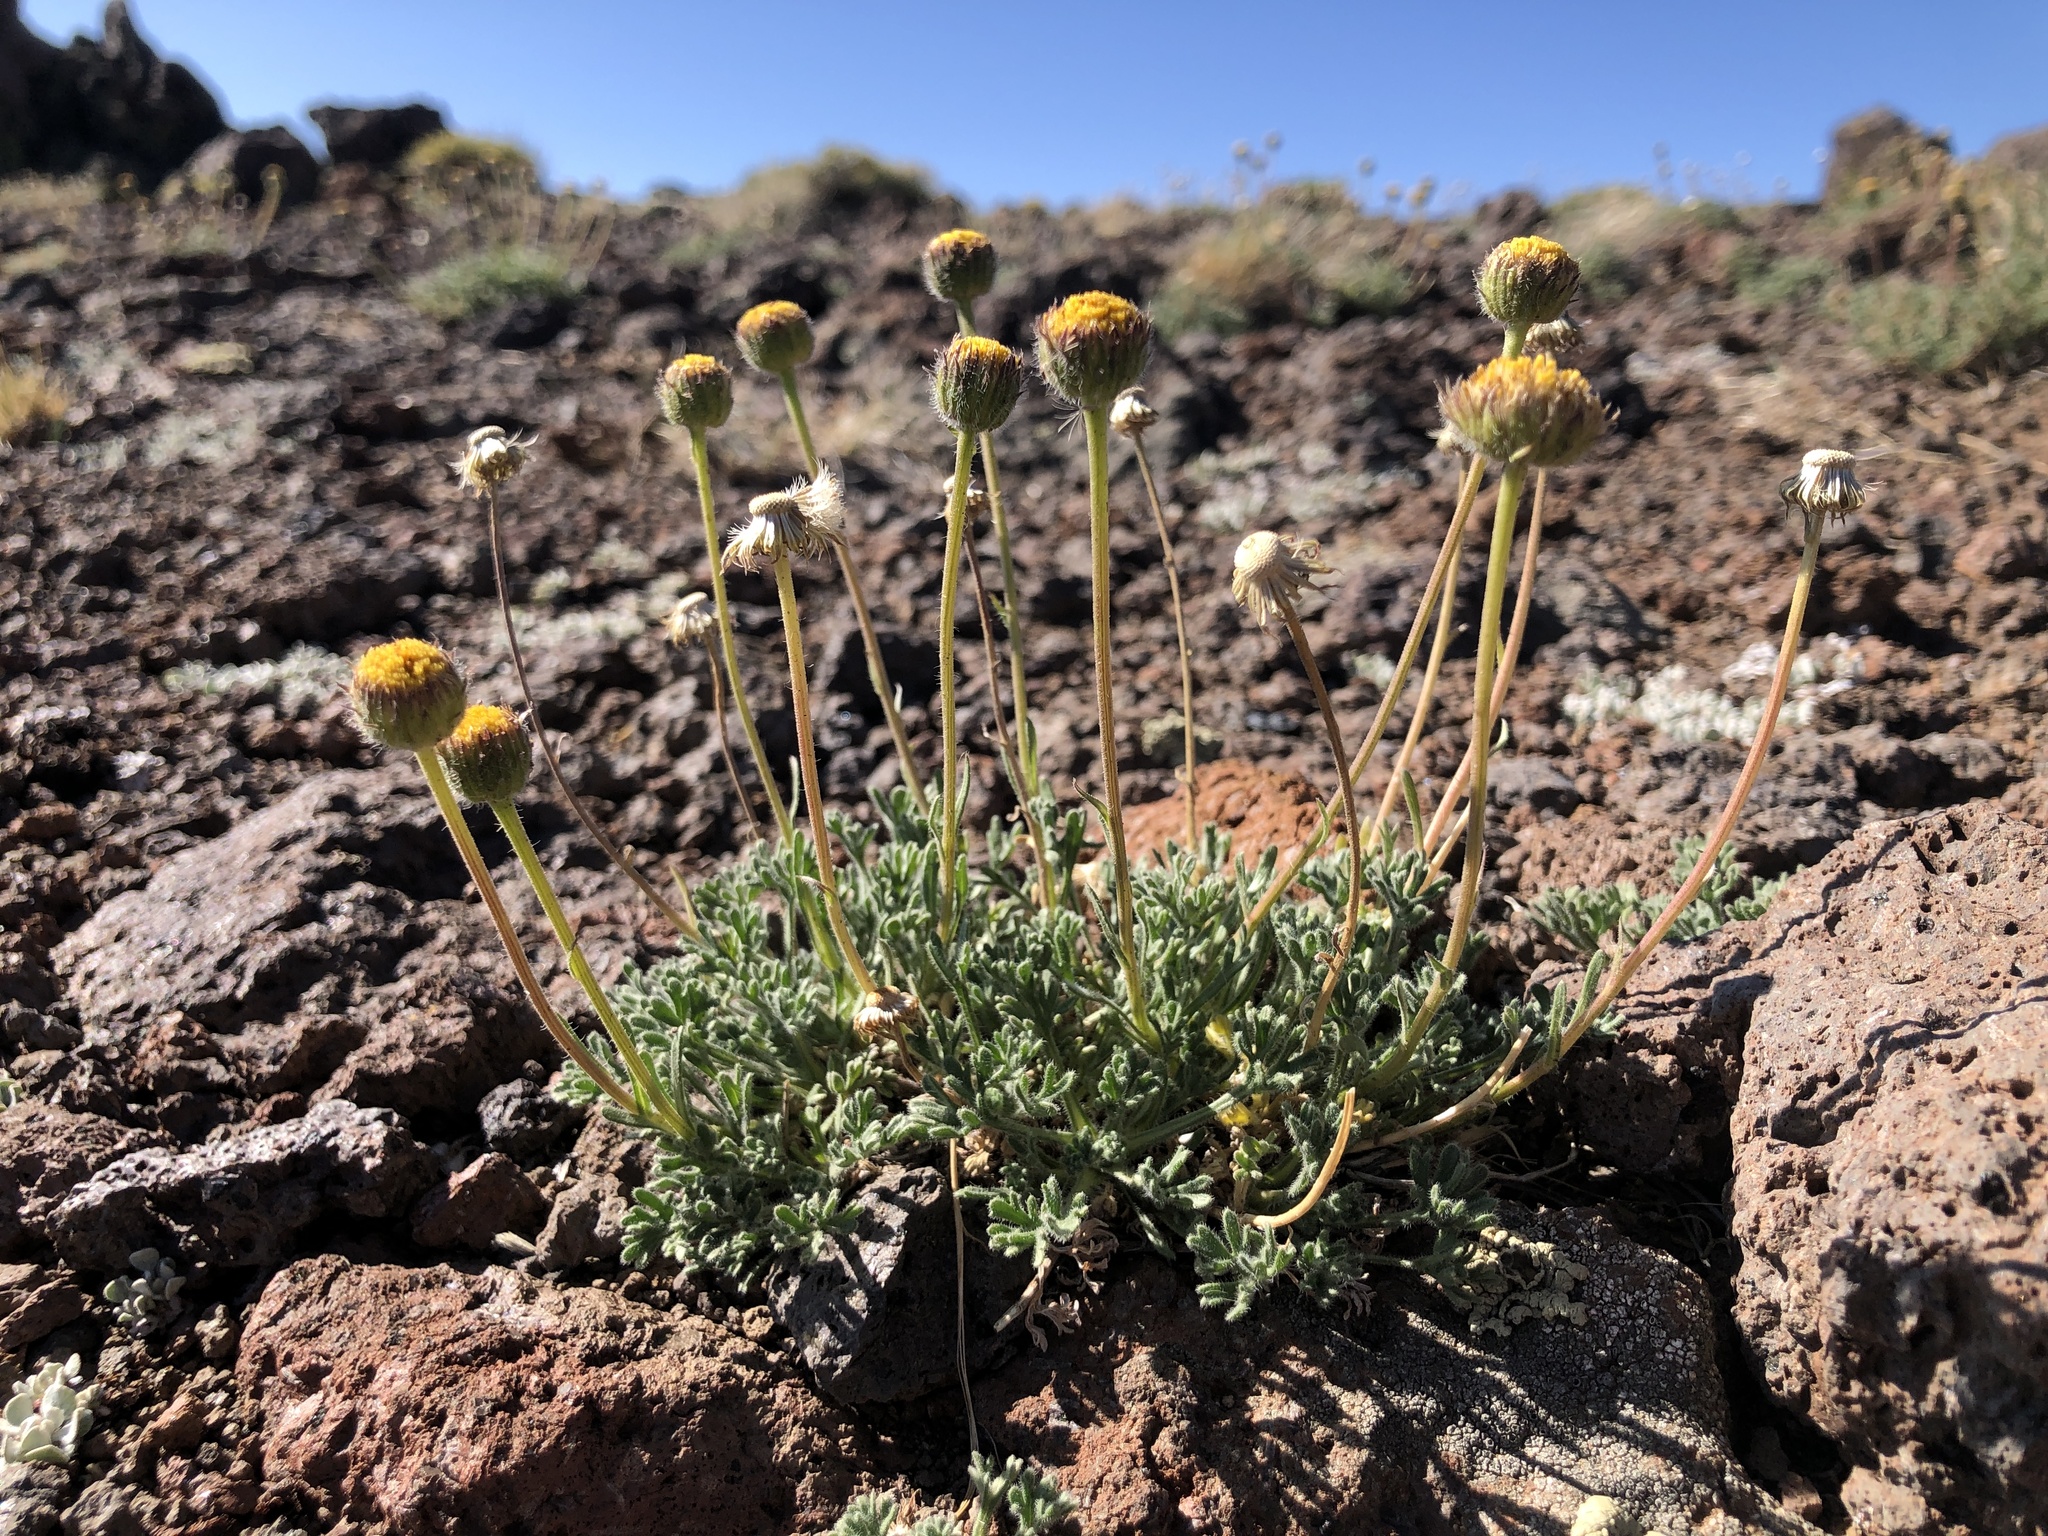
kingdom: Plantae
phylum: Tracheophyta
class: Magnoliopsida
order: Asterales
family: Asteraceae
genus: Erigeron
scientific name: Erigeron compositus
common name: Dwarf mountain fleabane
